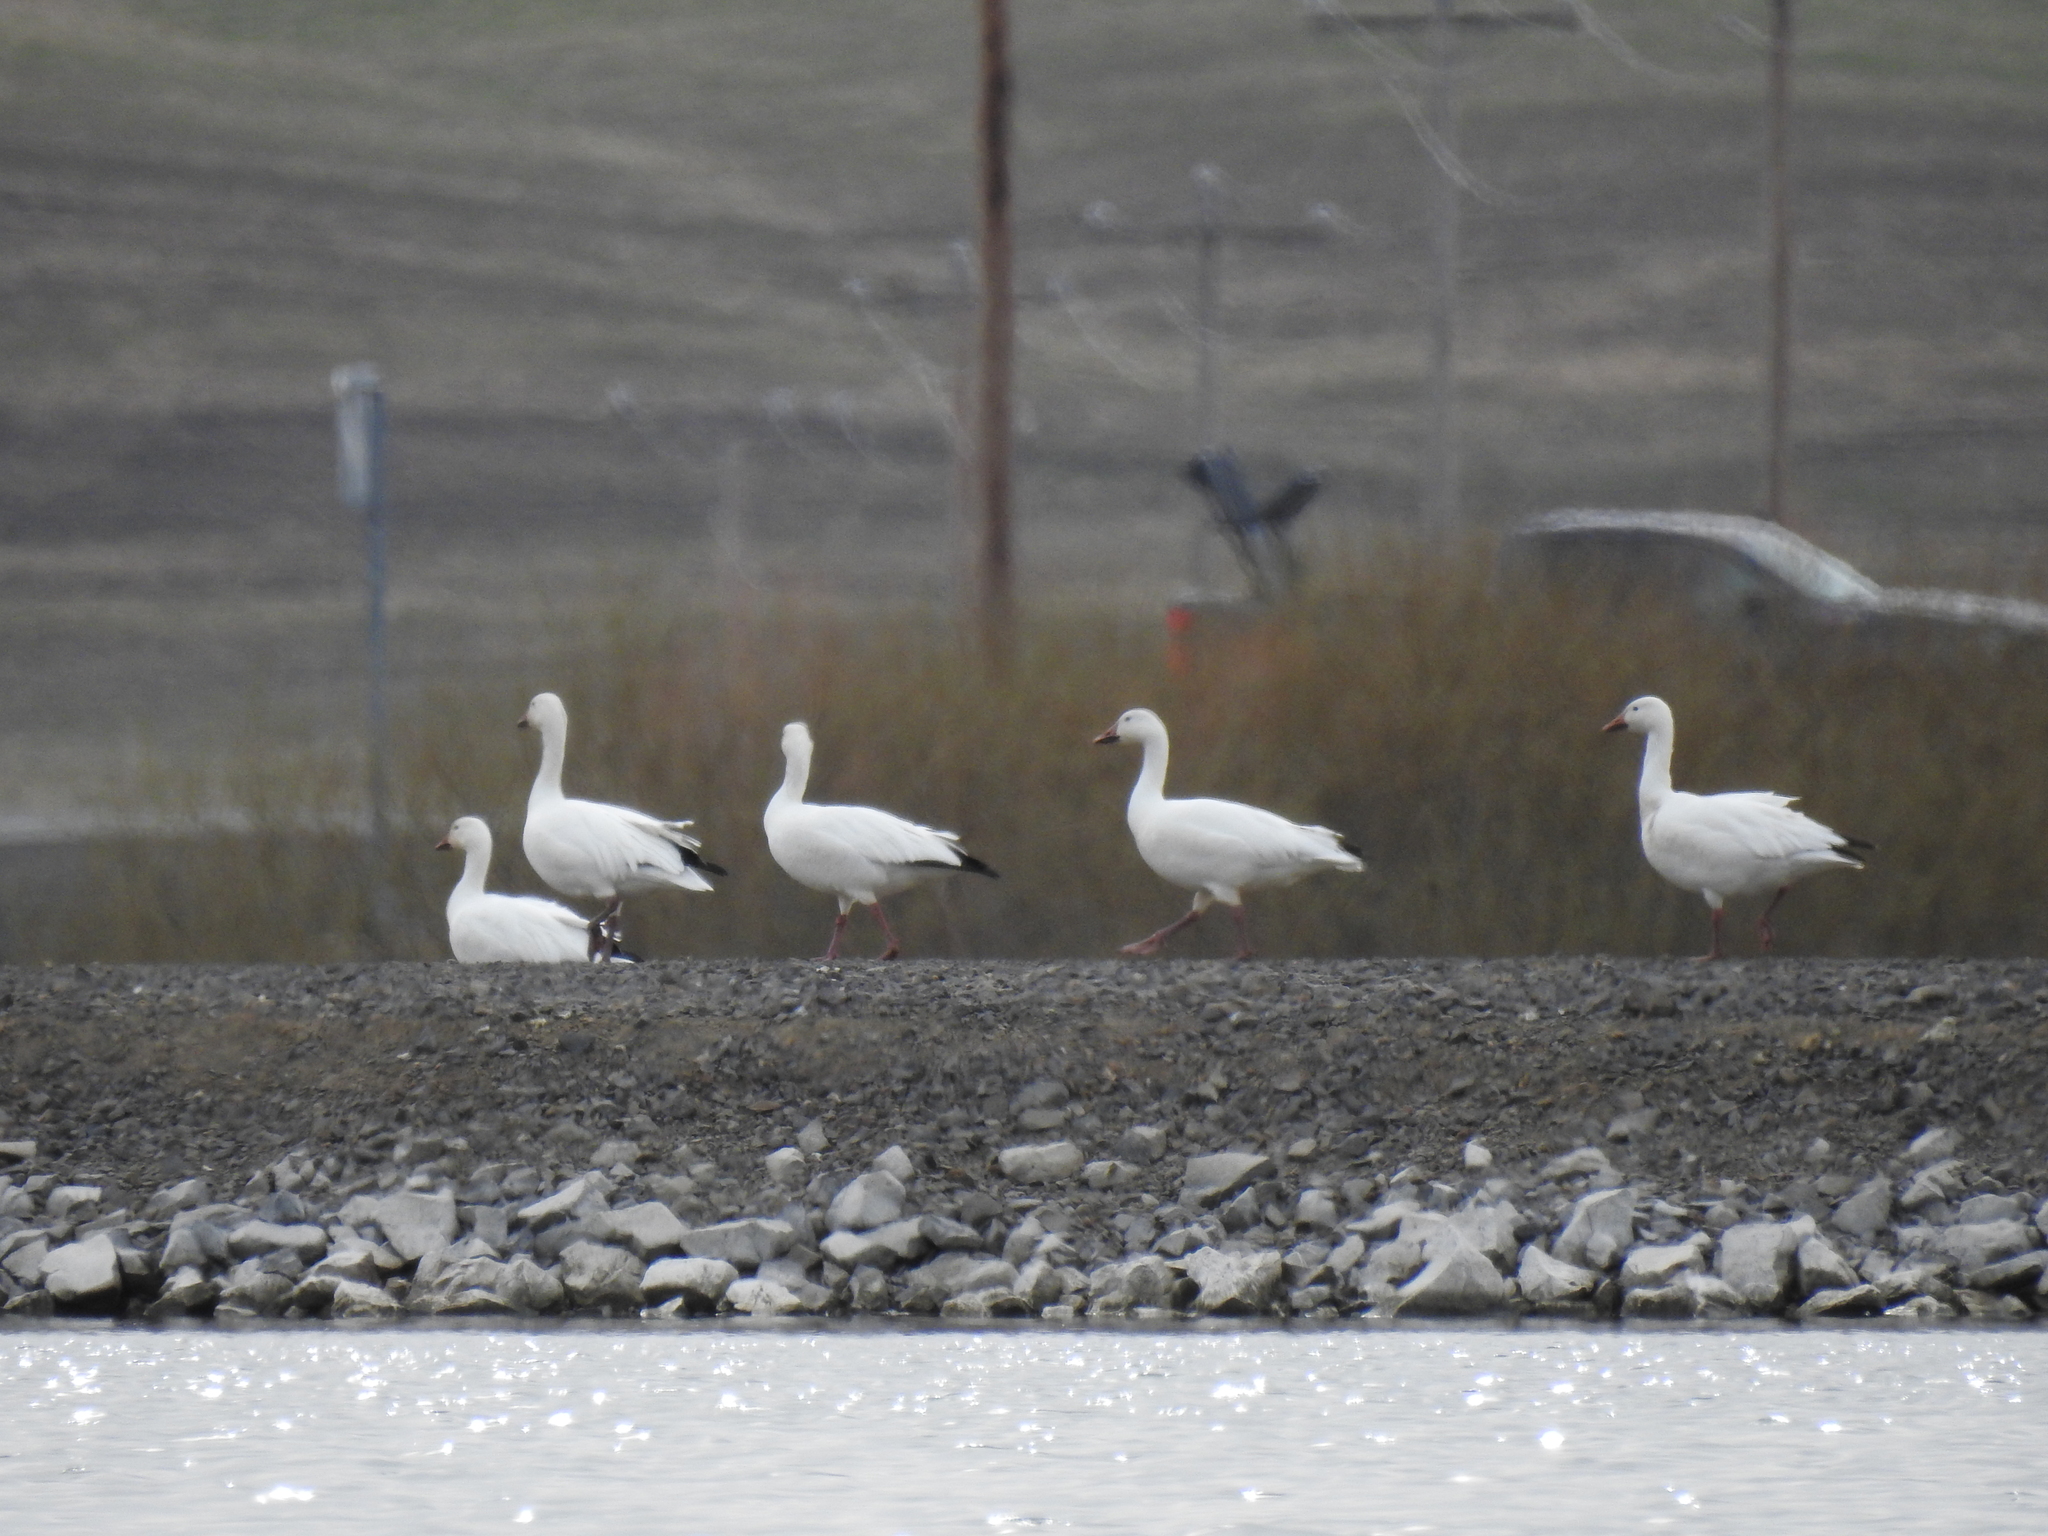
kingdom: Animalia
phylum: Chordata
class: Aves
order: Anseriformes
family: Anatidae
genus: Anser
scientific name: Anser caerulescens
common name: Snow goose
